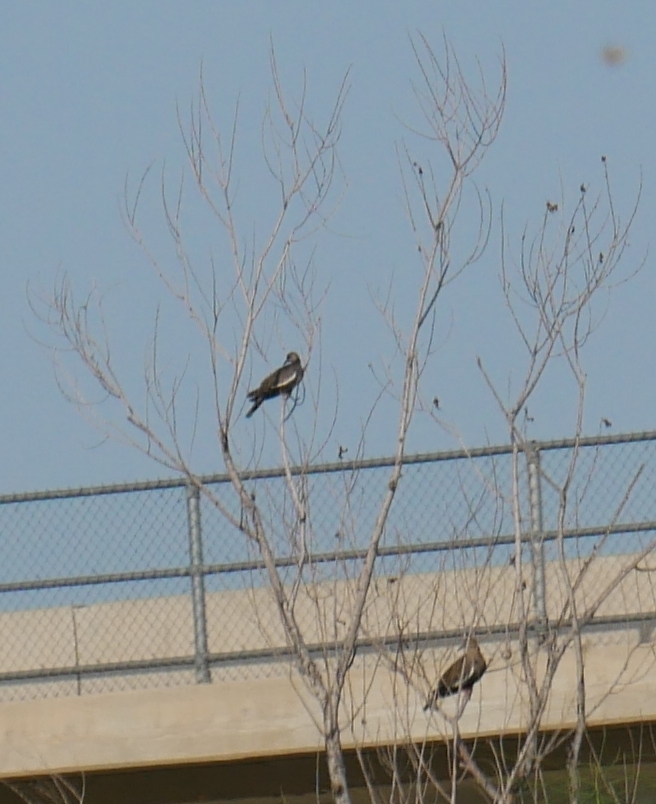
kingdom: Animalia
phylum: Chordata
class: Aves
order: Columbiformes
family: Columbidae
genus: Zenaida
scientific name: Zenaida asiatica
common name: White-winged dove
